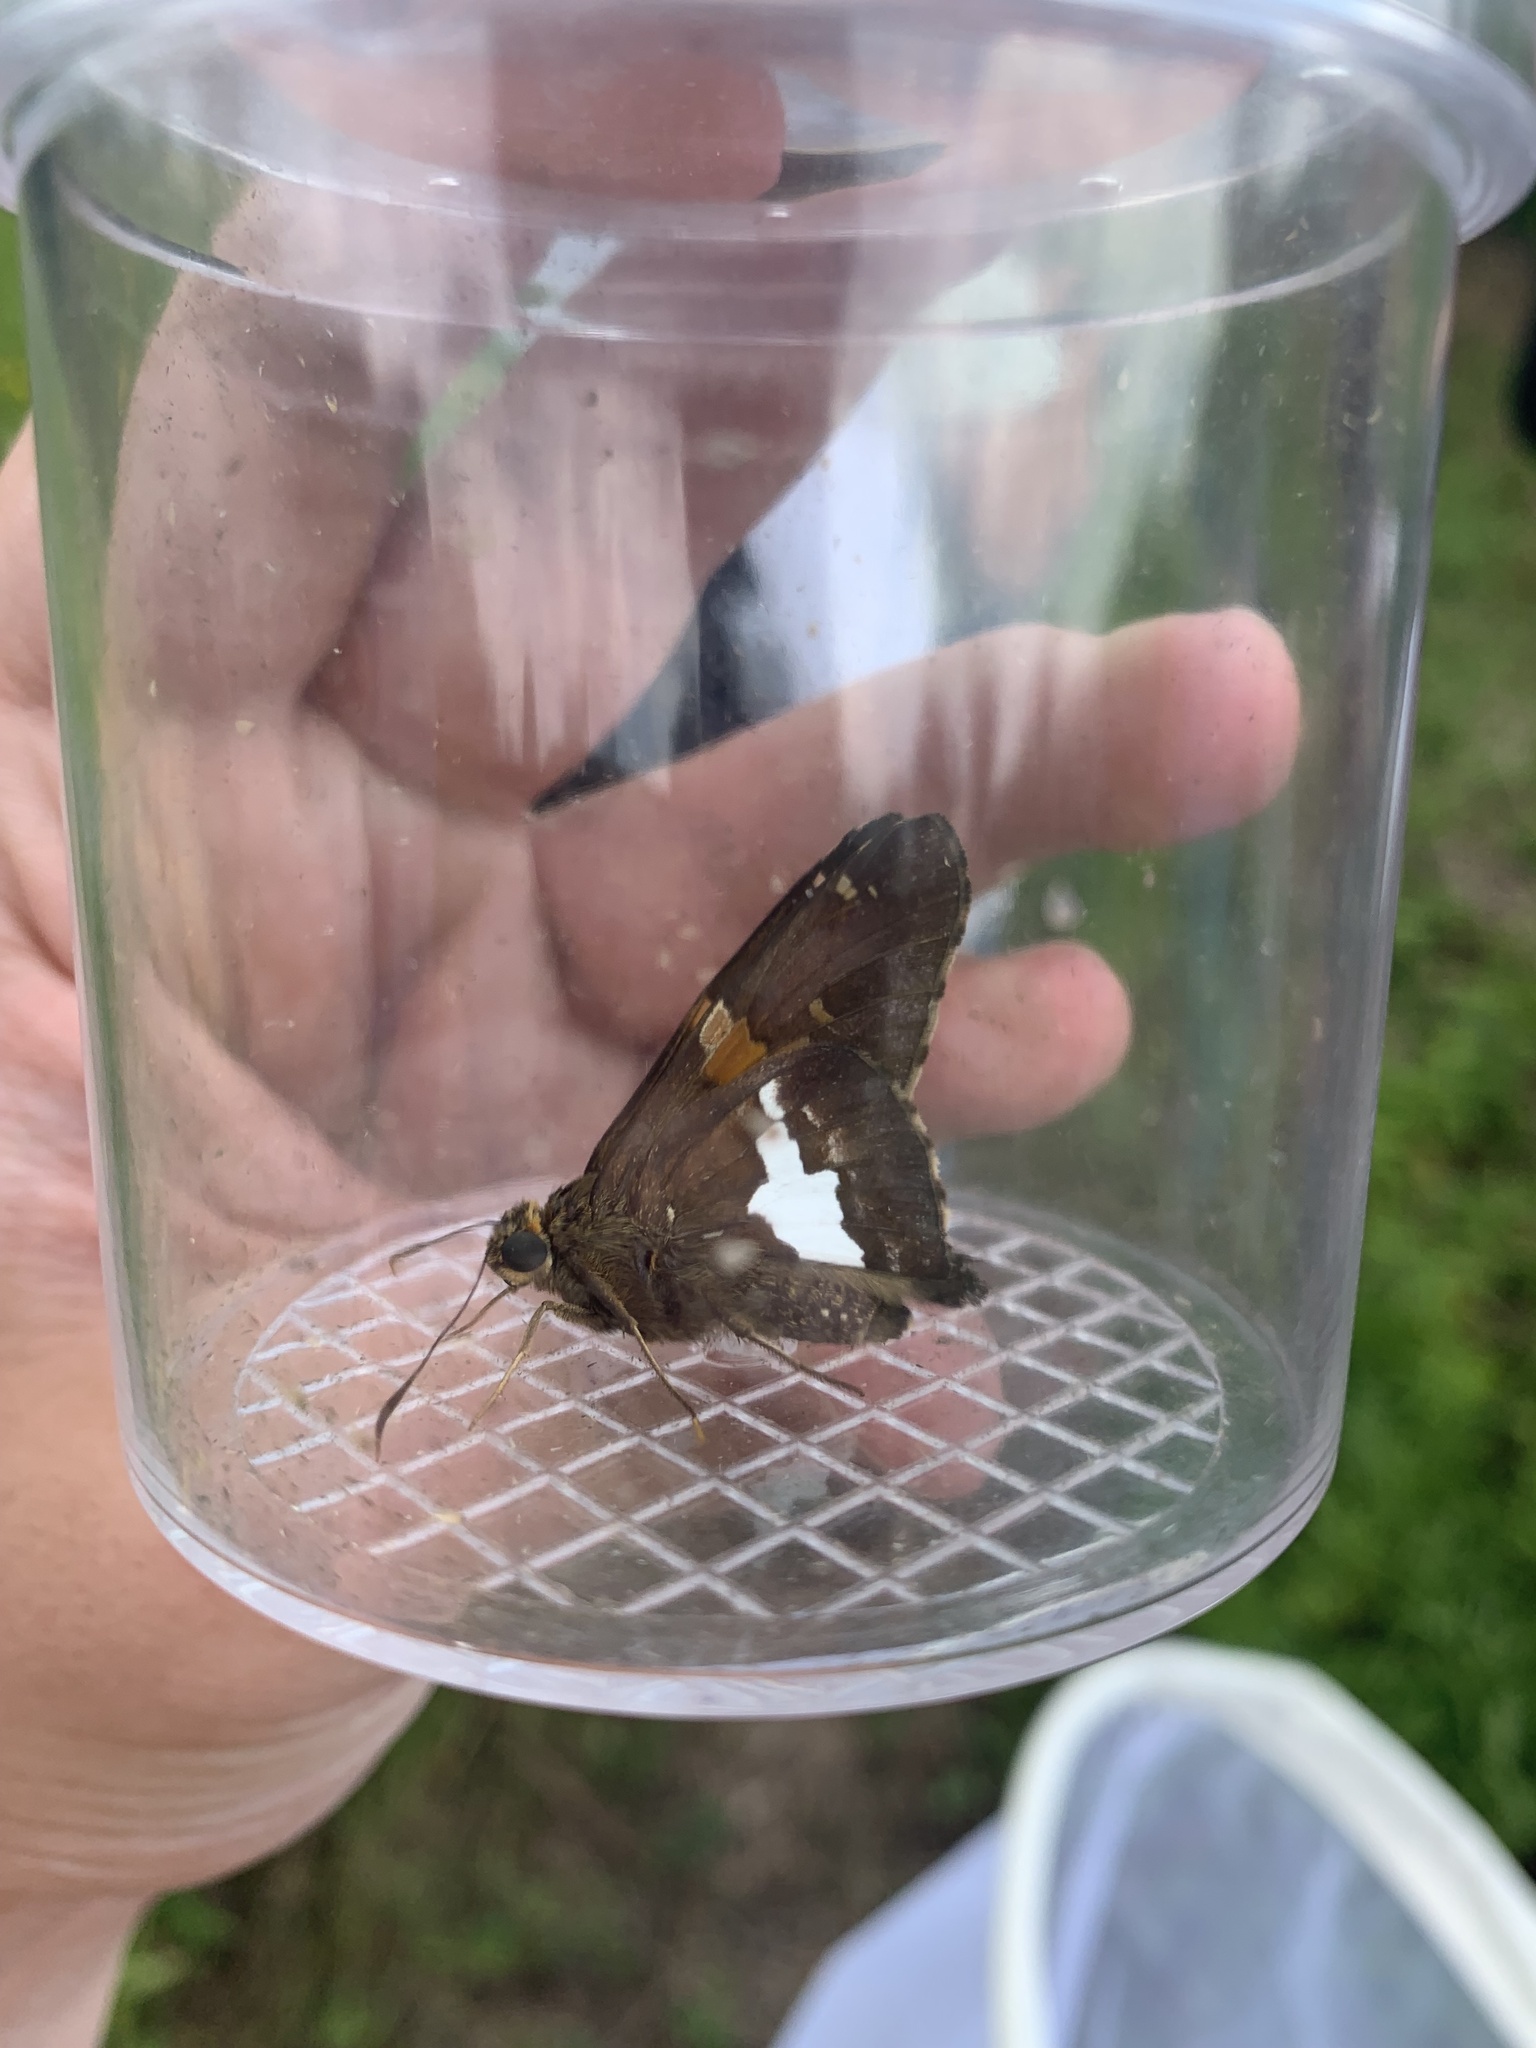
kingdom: Animalia
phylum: Arthropoda
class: Insecta
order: Lepidoptera
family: Hesperiidae
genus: Epargyreus
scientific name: Epargyreus clarus
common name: Silver-spotted skipper
